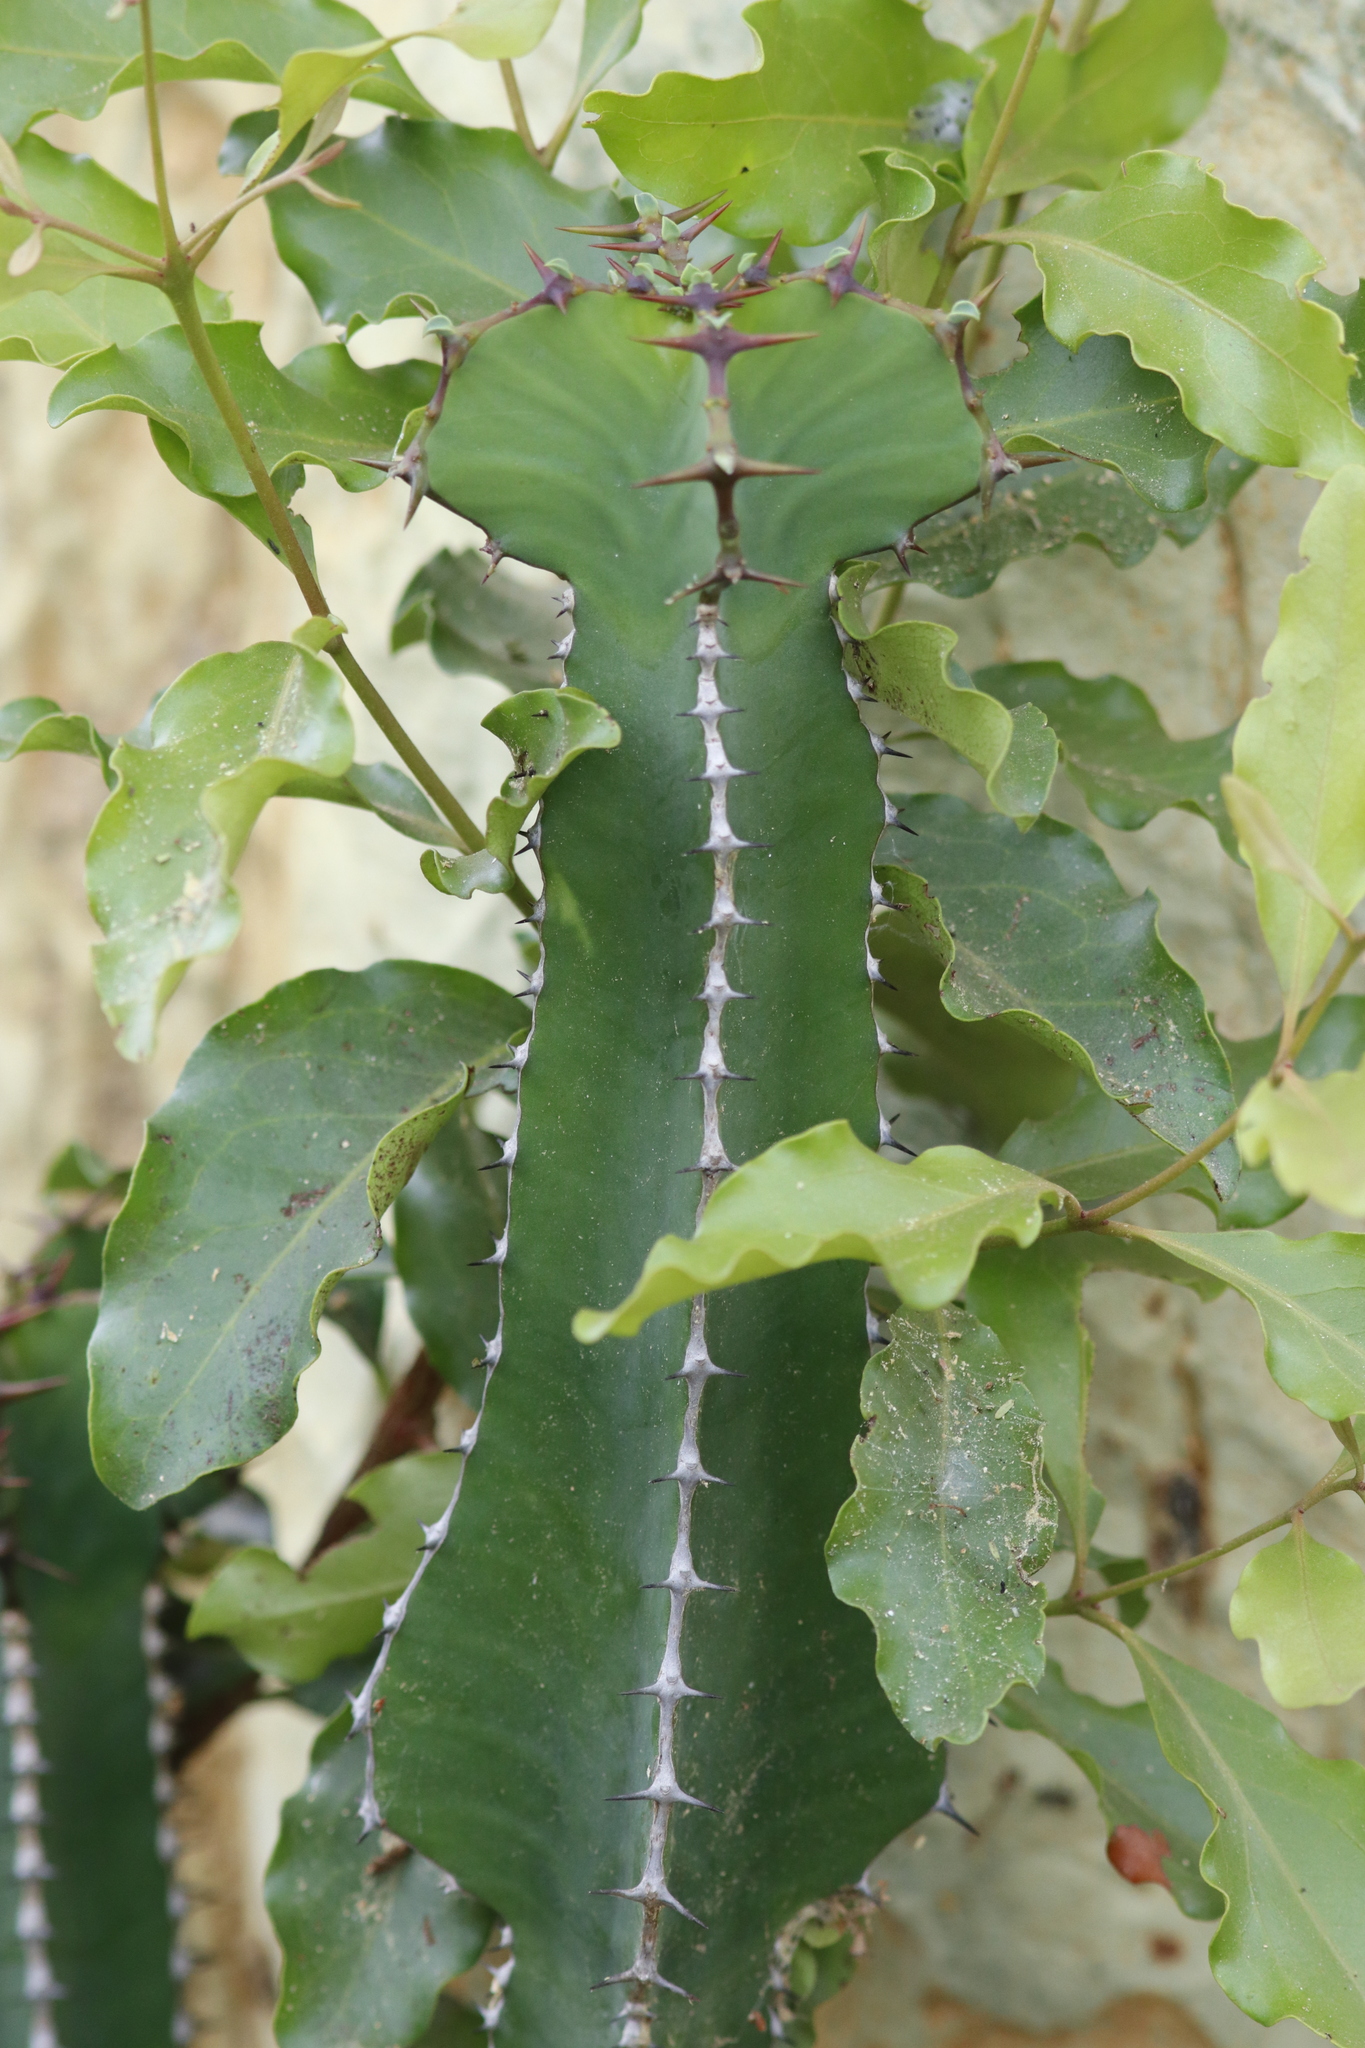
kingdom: Plantae
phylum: Tracheophyta
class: Magnoliopsida
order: Malpighiales
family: Euphorbiaceae
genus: Euphorbia
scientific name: Euphorbia cooperi
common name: Candelabra tree
